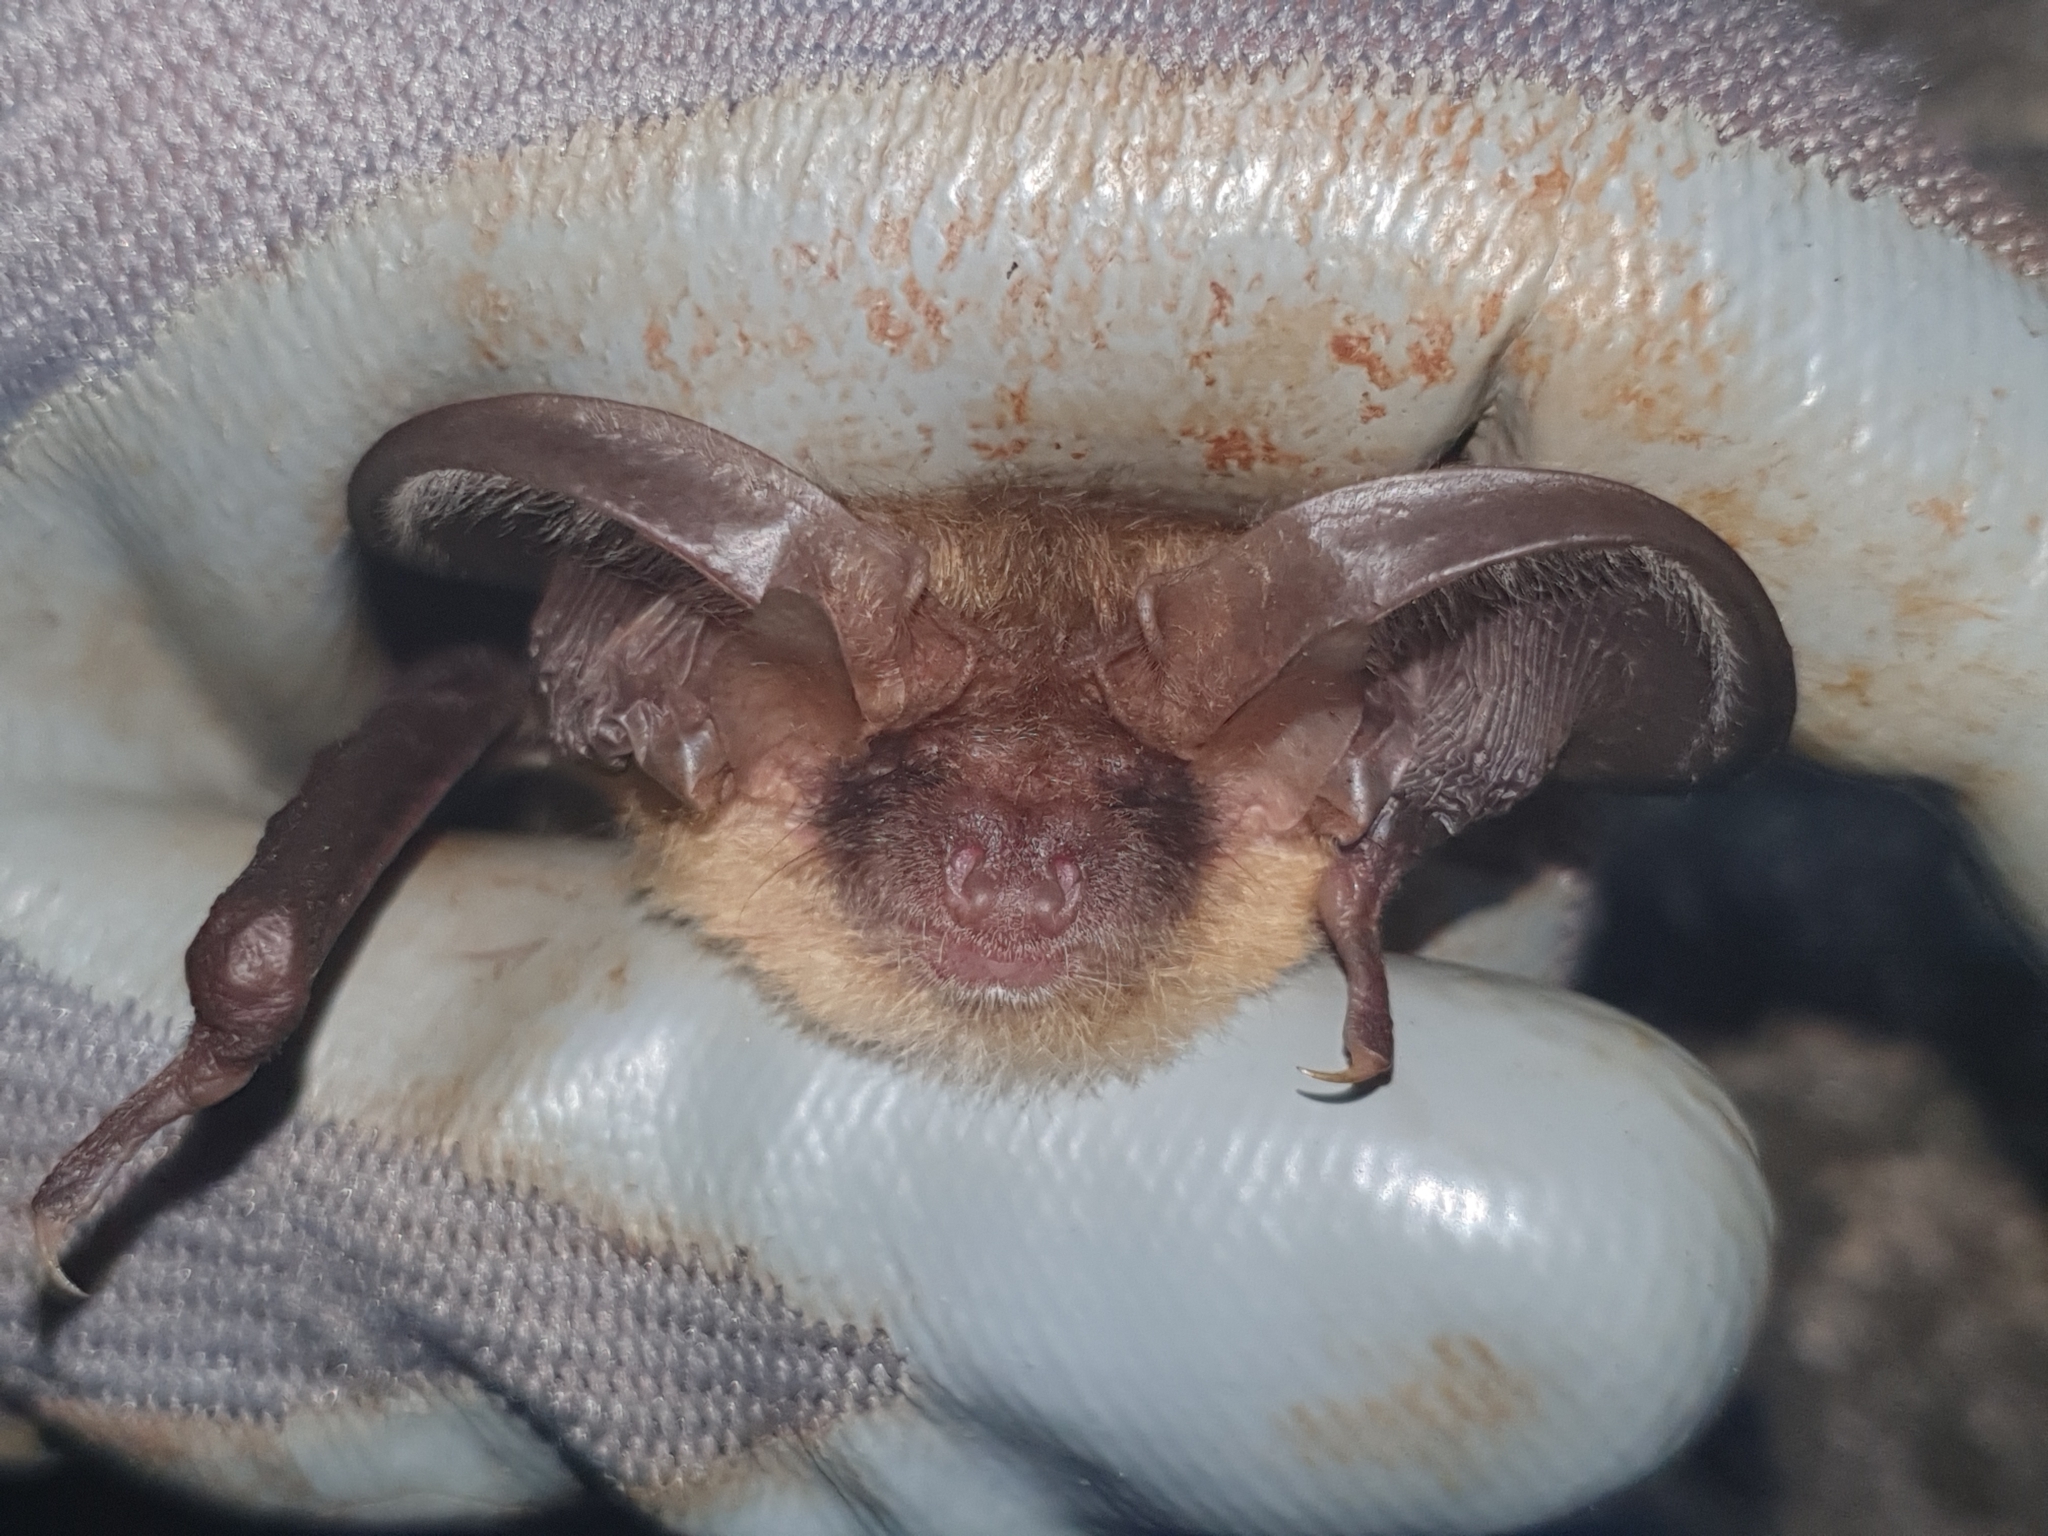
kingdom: Animalia
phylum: Chordata
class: Mammalia
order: Chiroptera
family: Vespertilionidae
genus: Plecotus
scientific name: Plecotus auritus
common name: Brown long-eared bat
